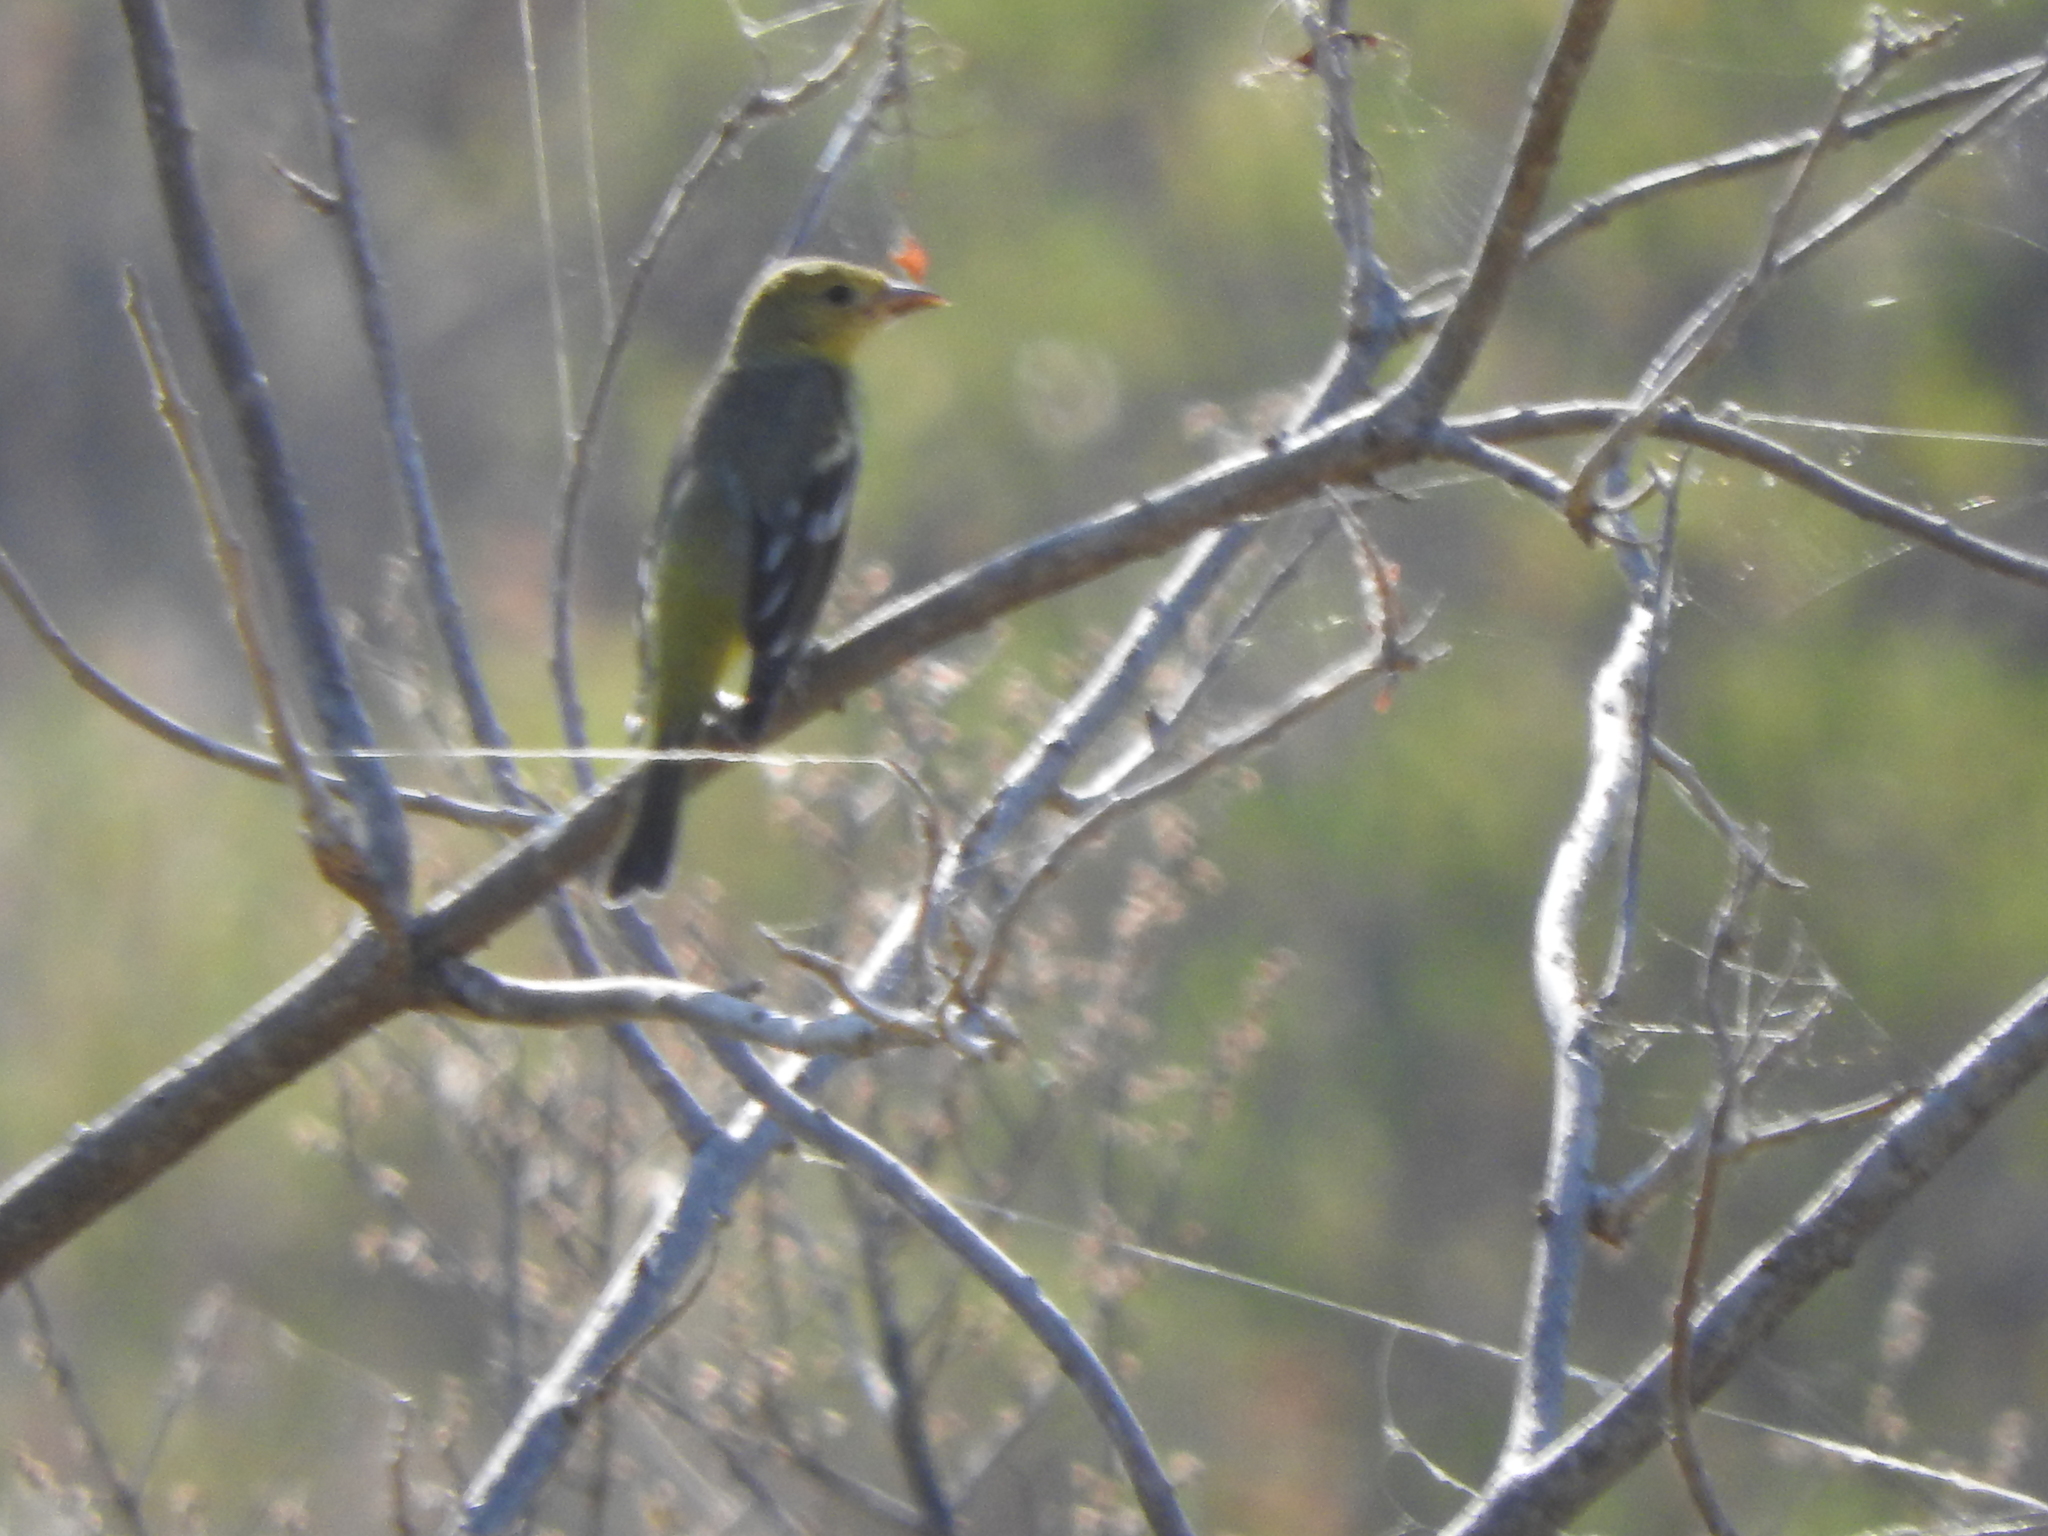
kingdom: Animalia
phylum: Chordata
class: Aves
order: Passeriformes
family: Cardinalidae
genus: Piranga
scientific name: Piranga ludoviciana
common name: Western tanager
